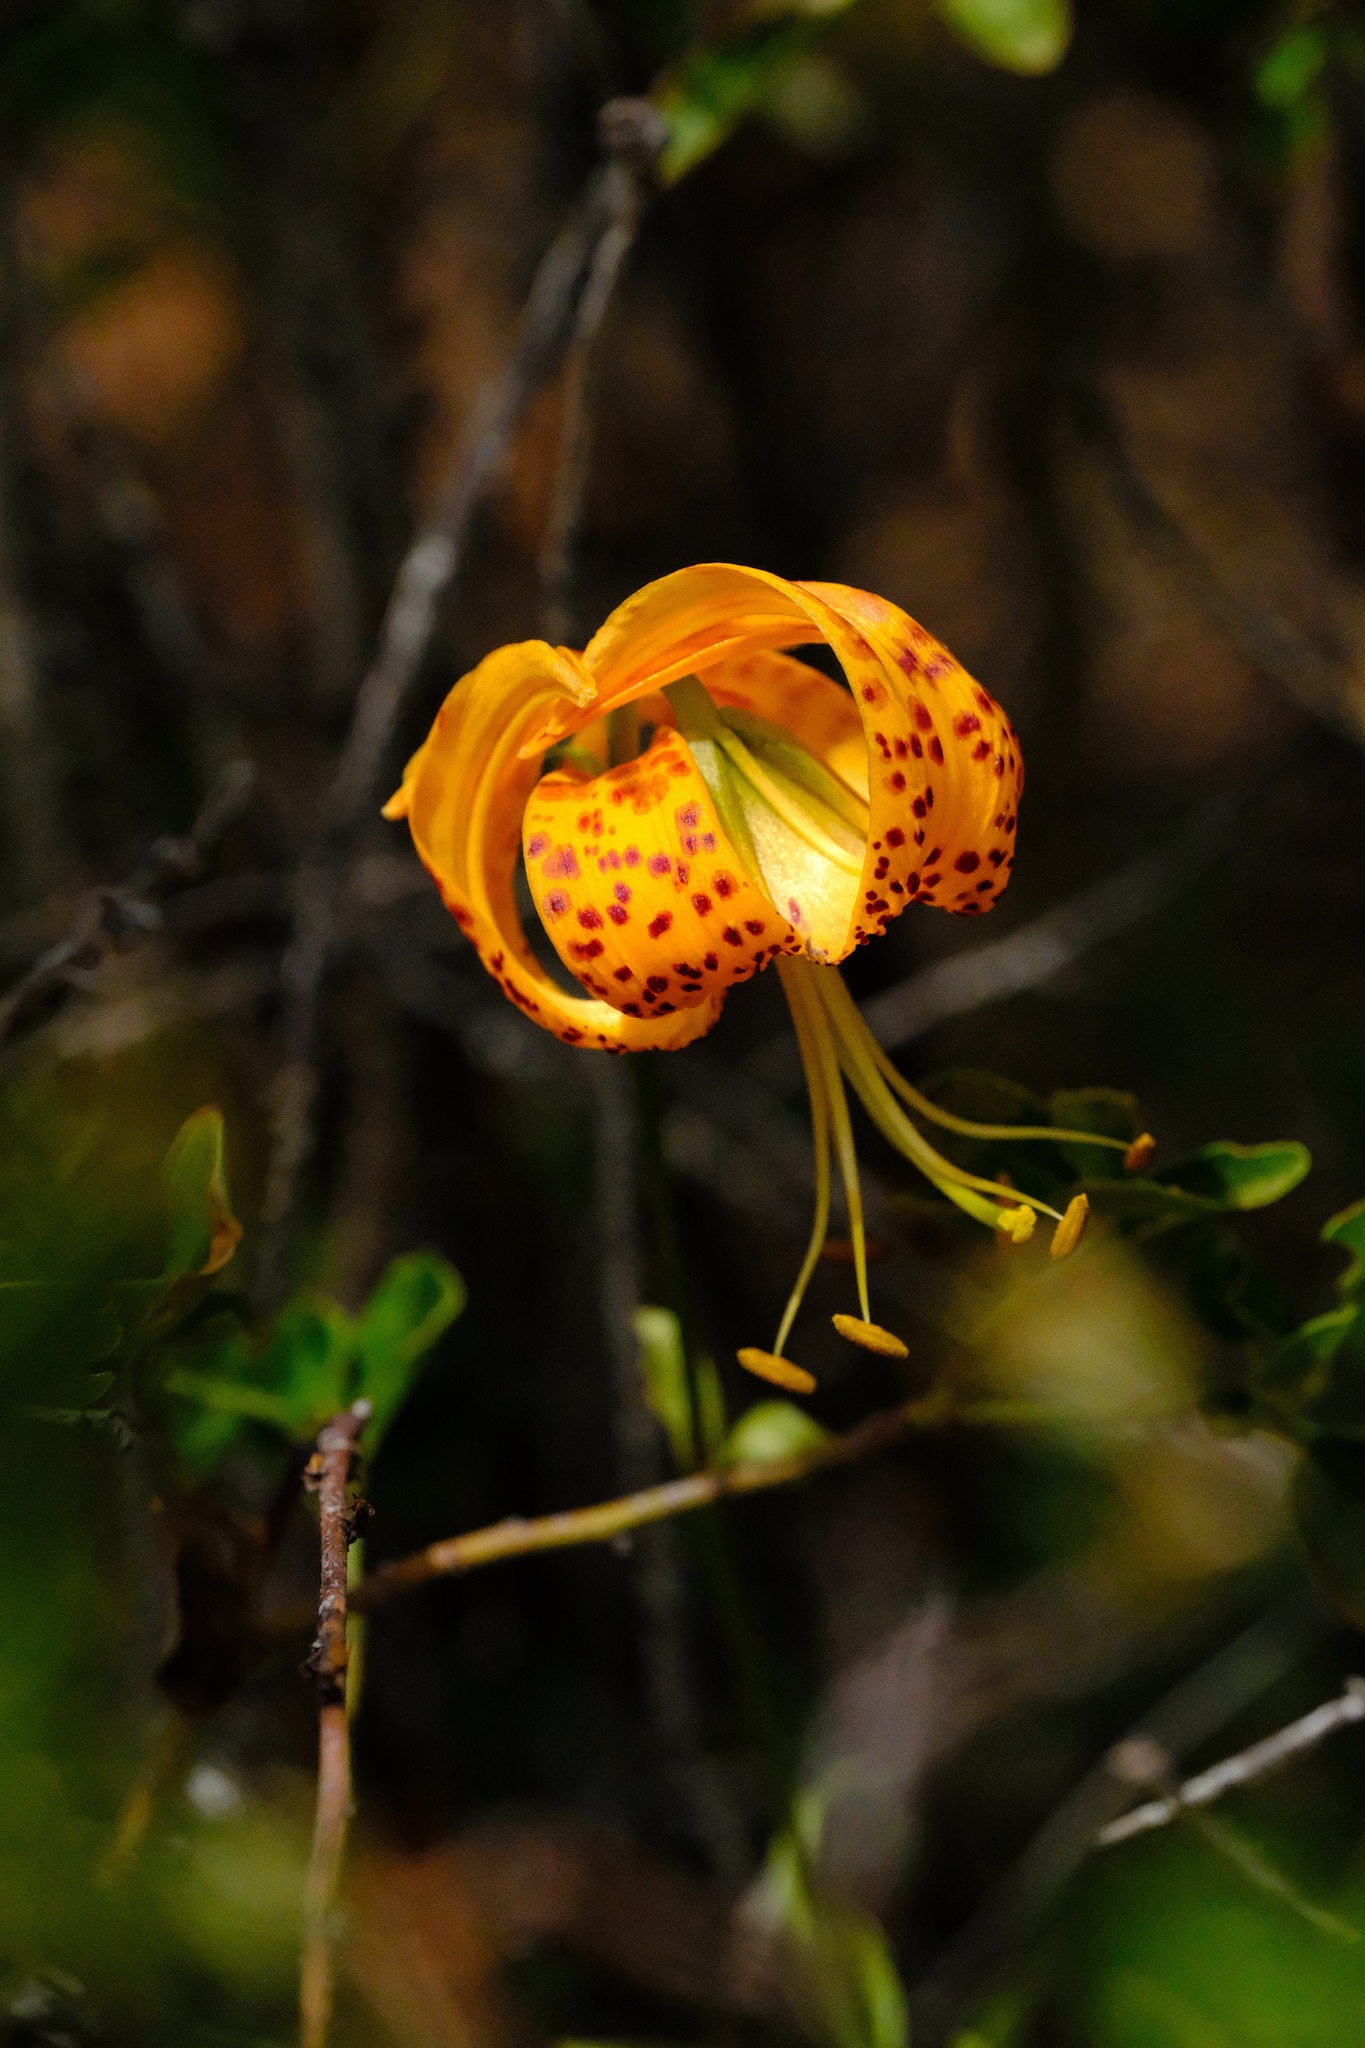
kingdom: Plantae
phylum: Tracheophyta
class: Liliopsida
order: Liliales
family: Liliaceae
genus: Lilium
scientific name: Lilium humboldtii
